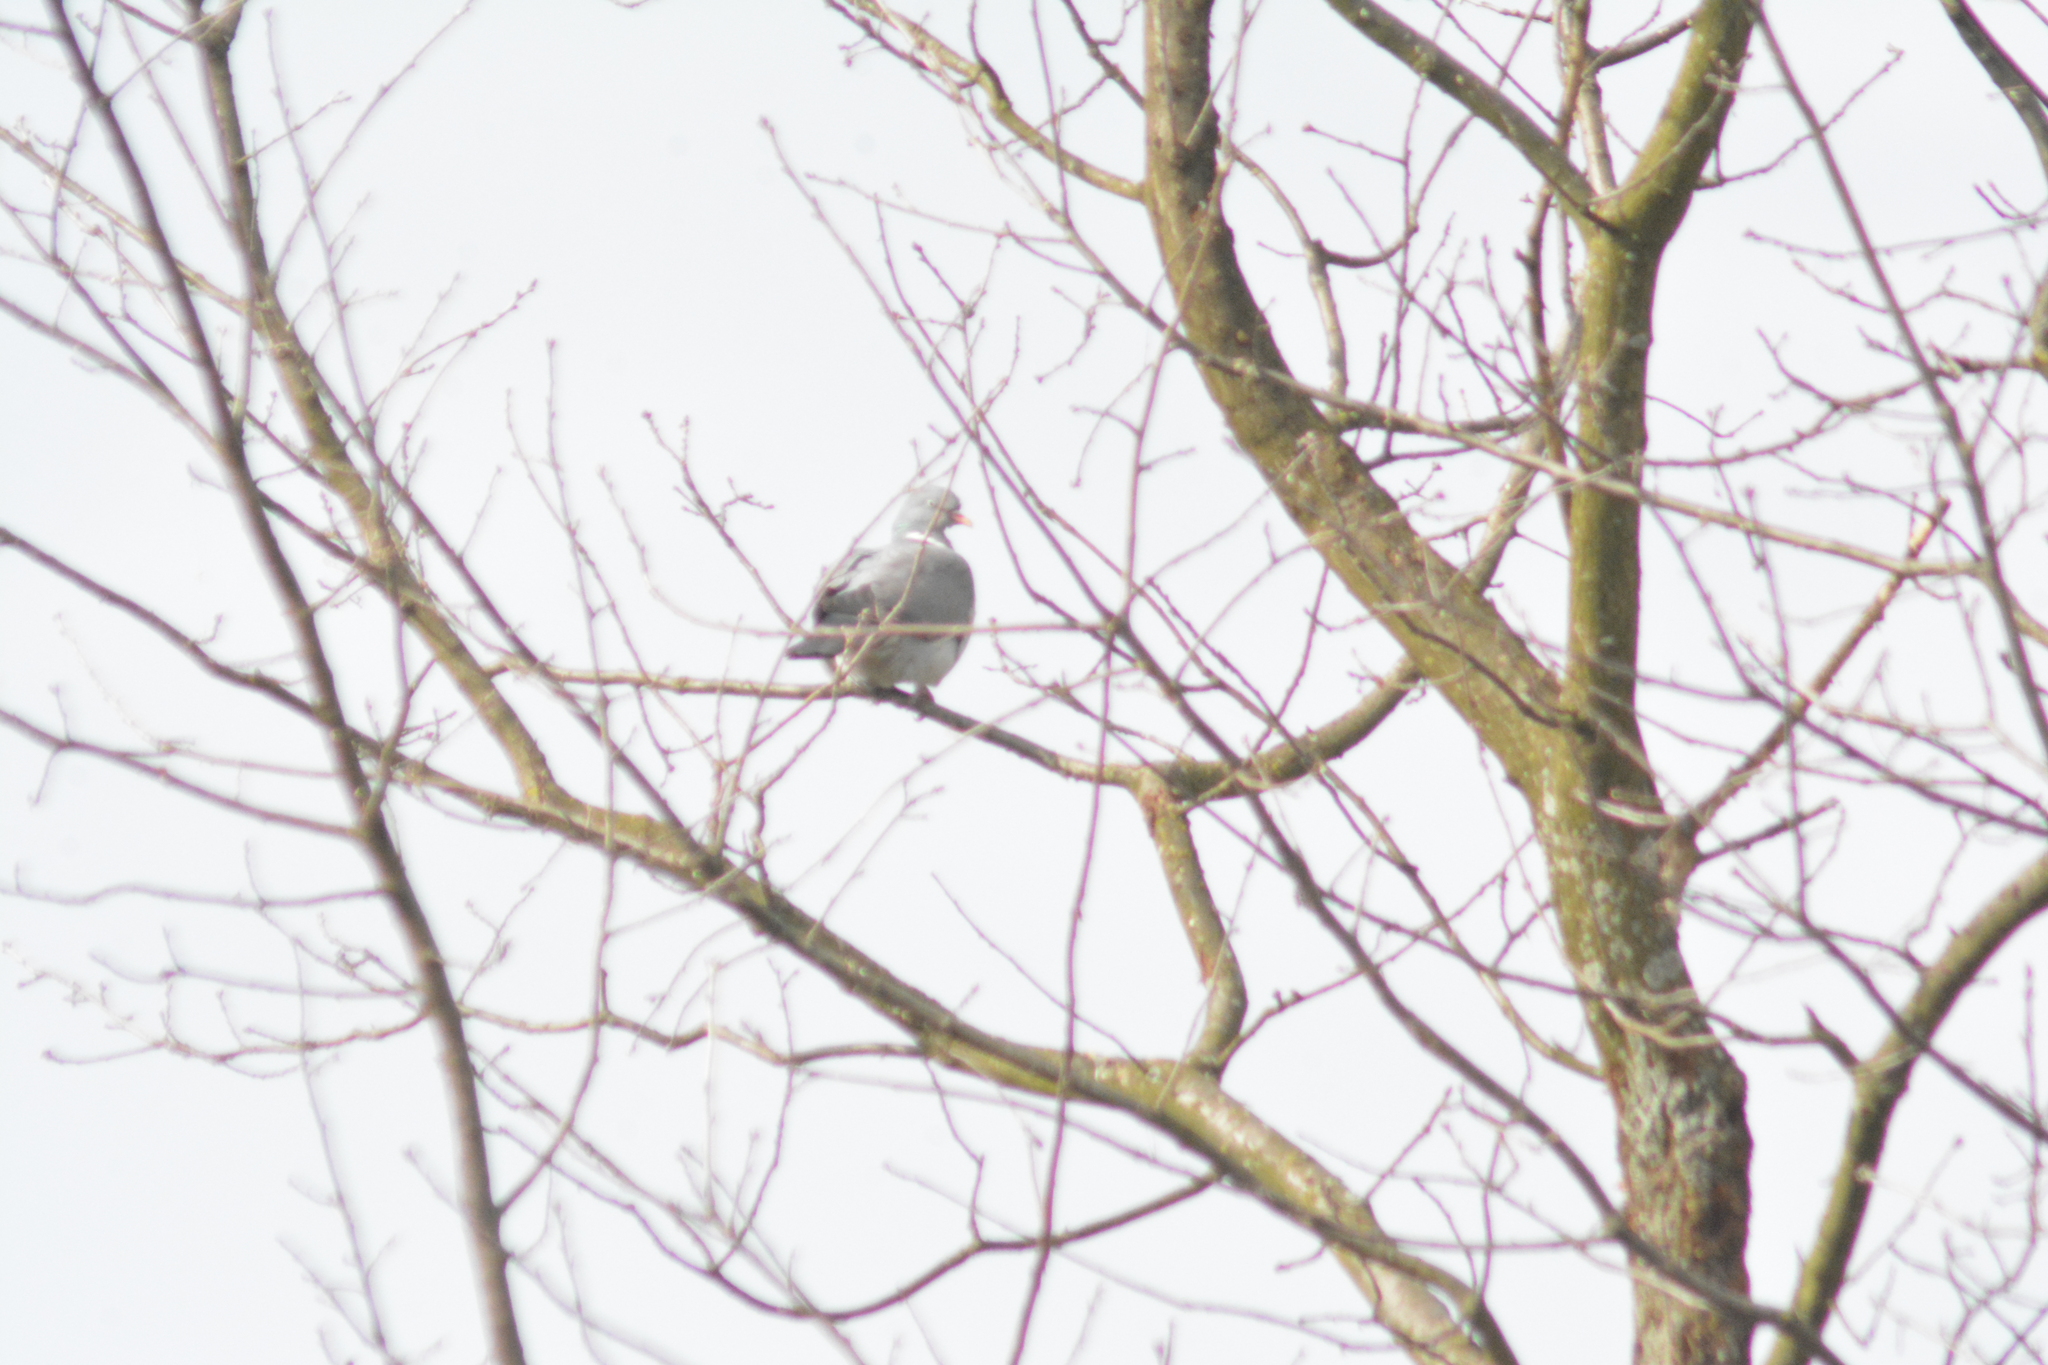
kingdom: Animalia
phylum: Chordata
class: Aves
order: Columbiformes
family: Columbidae
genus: Columba
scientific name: Columba palumbus
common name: Common wood pigeon
